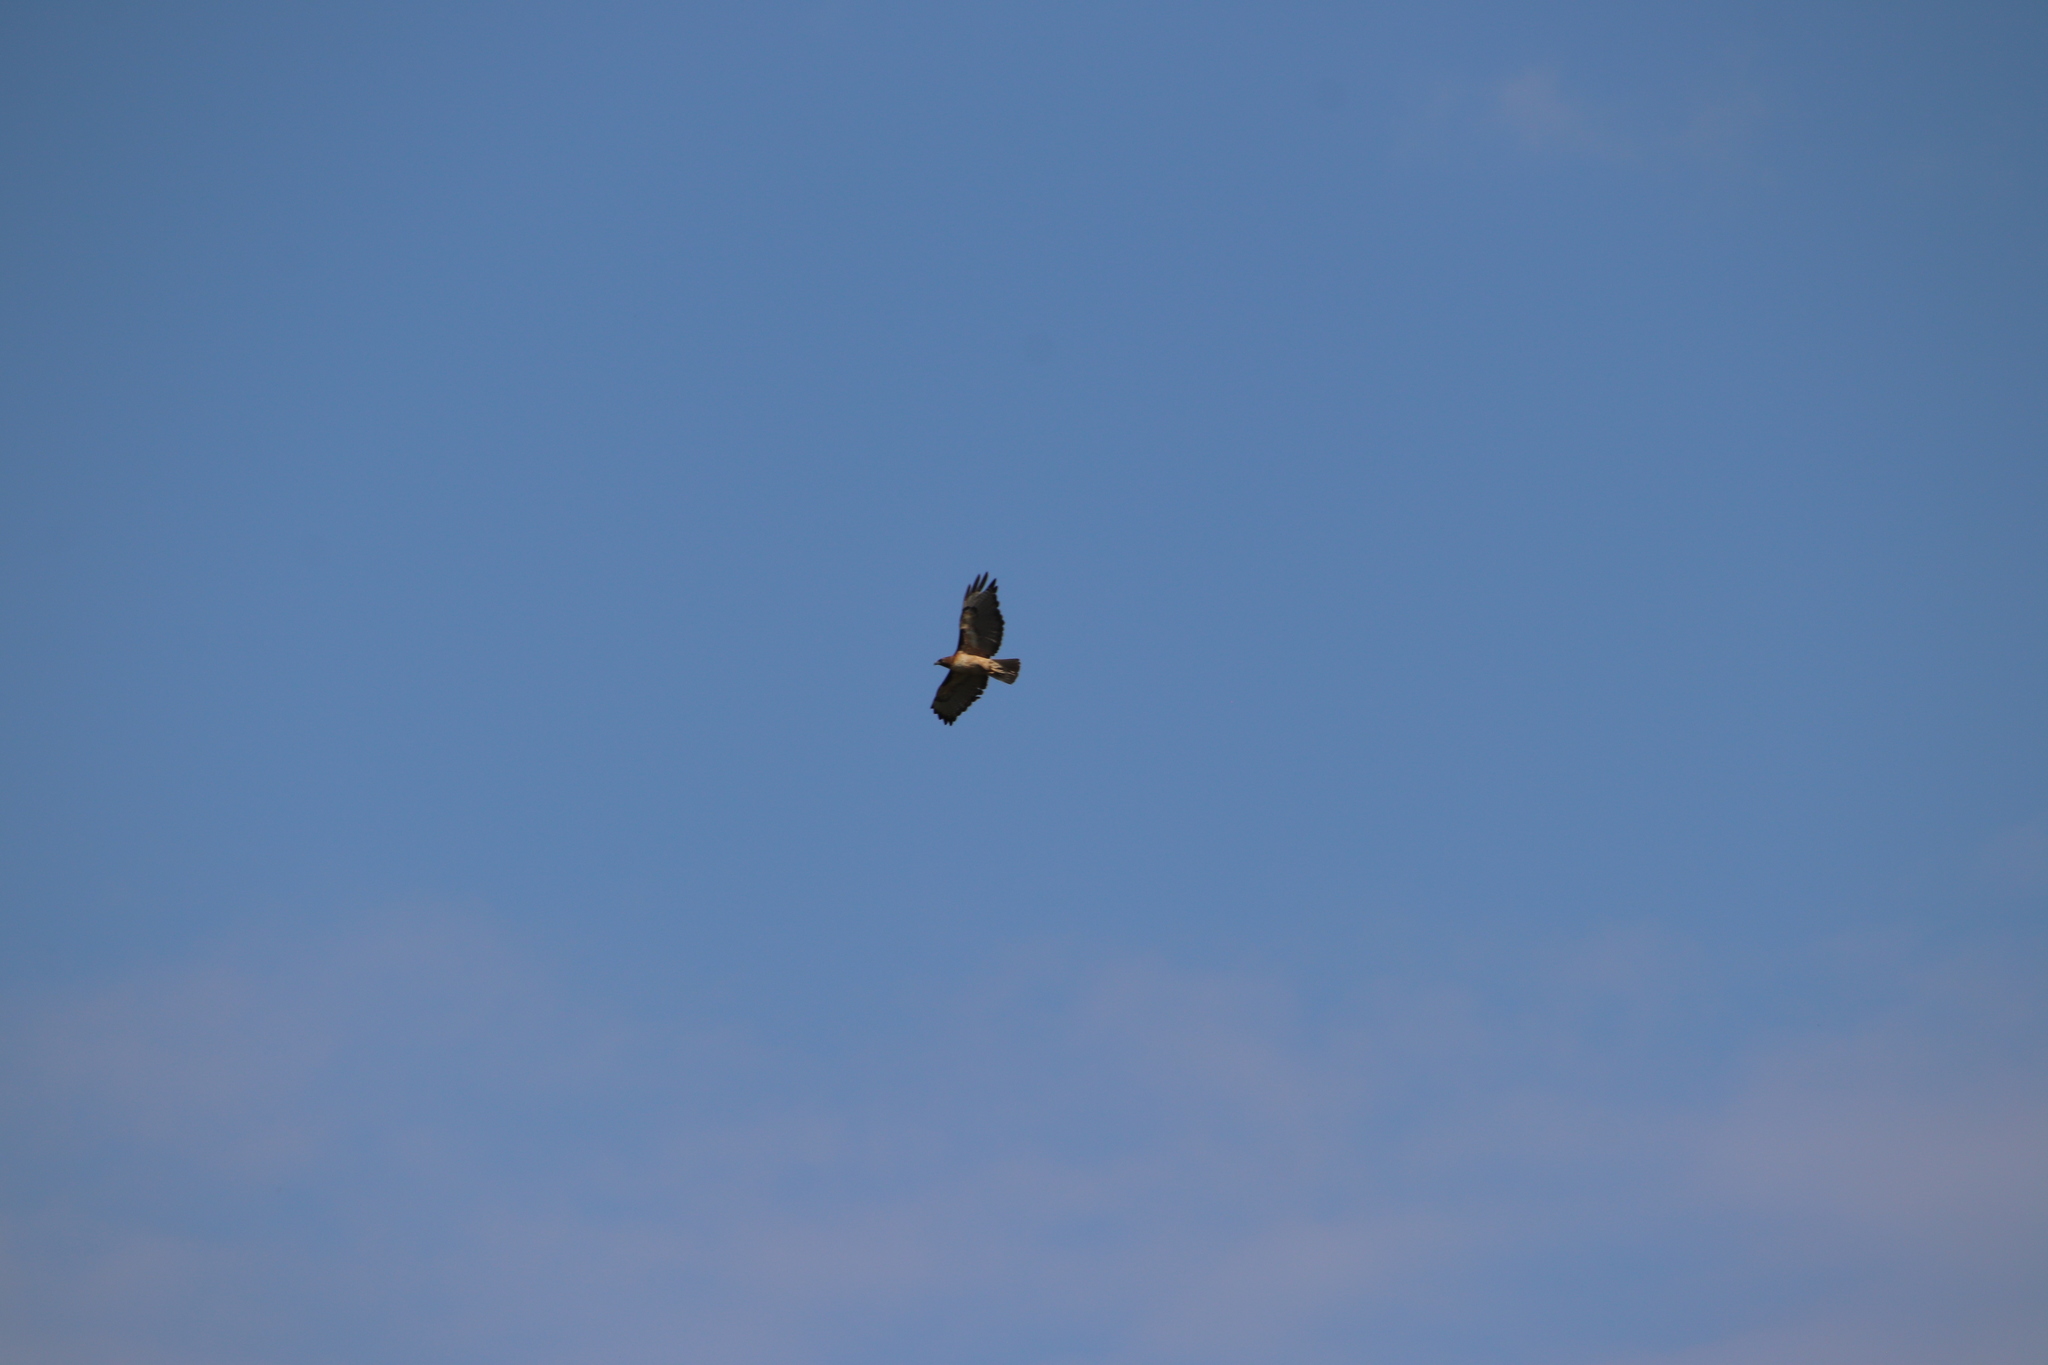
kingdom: Animalia
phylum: Chordata
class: Aves
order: Accipitriformes
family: Accipitridae
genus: Buteo
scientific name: Buteo jamaicensis
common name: Red-tailed hawk
